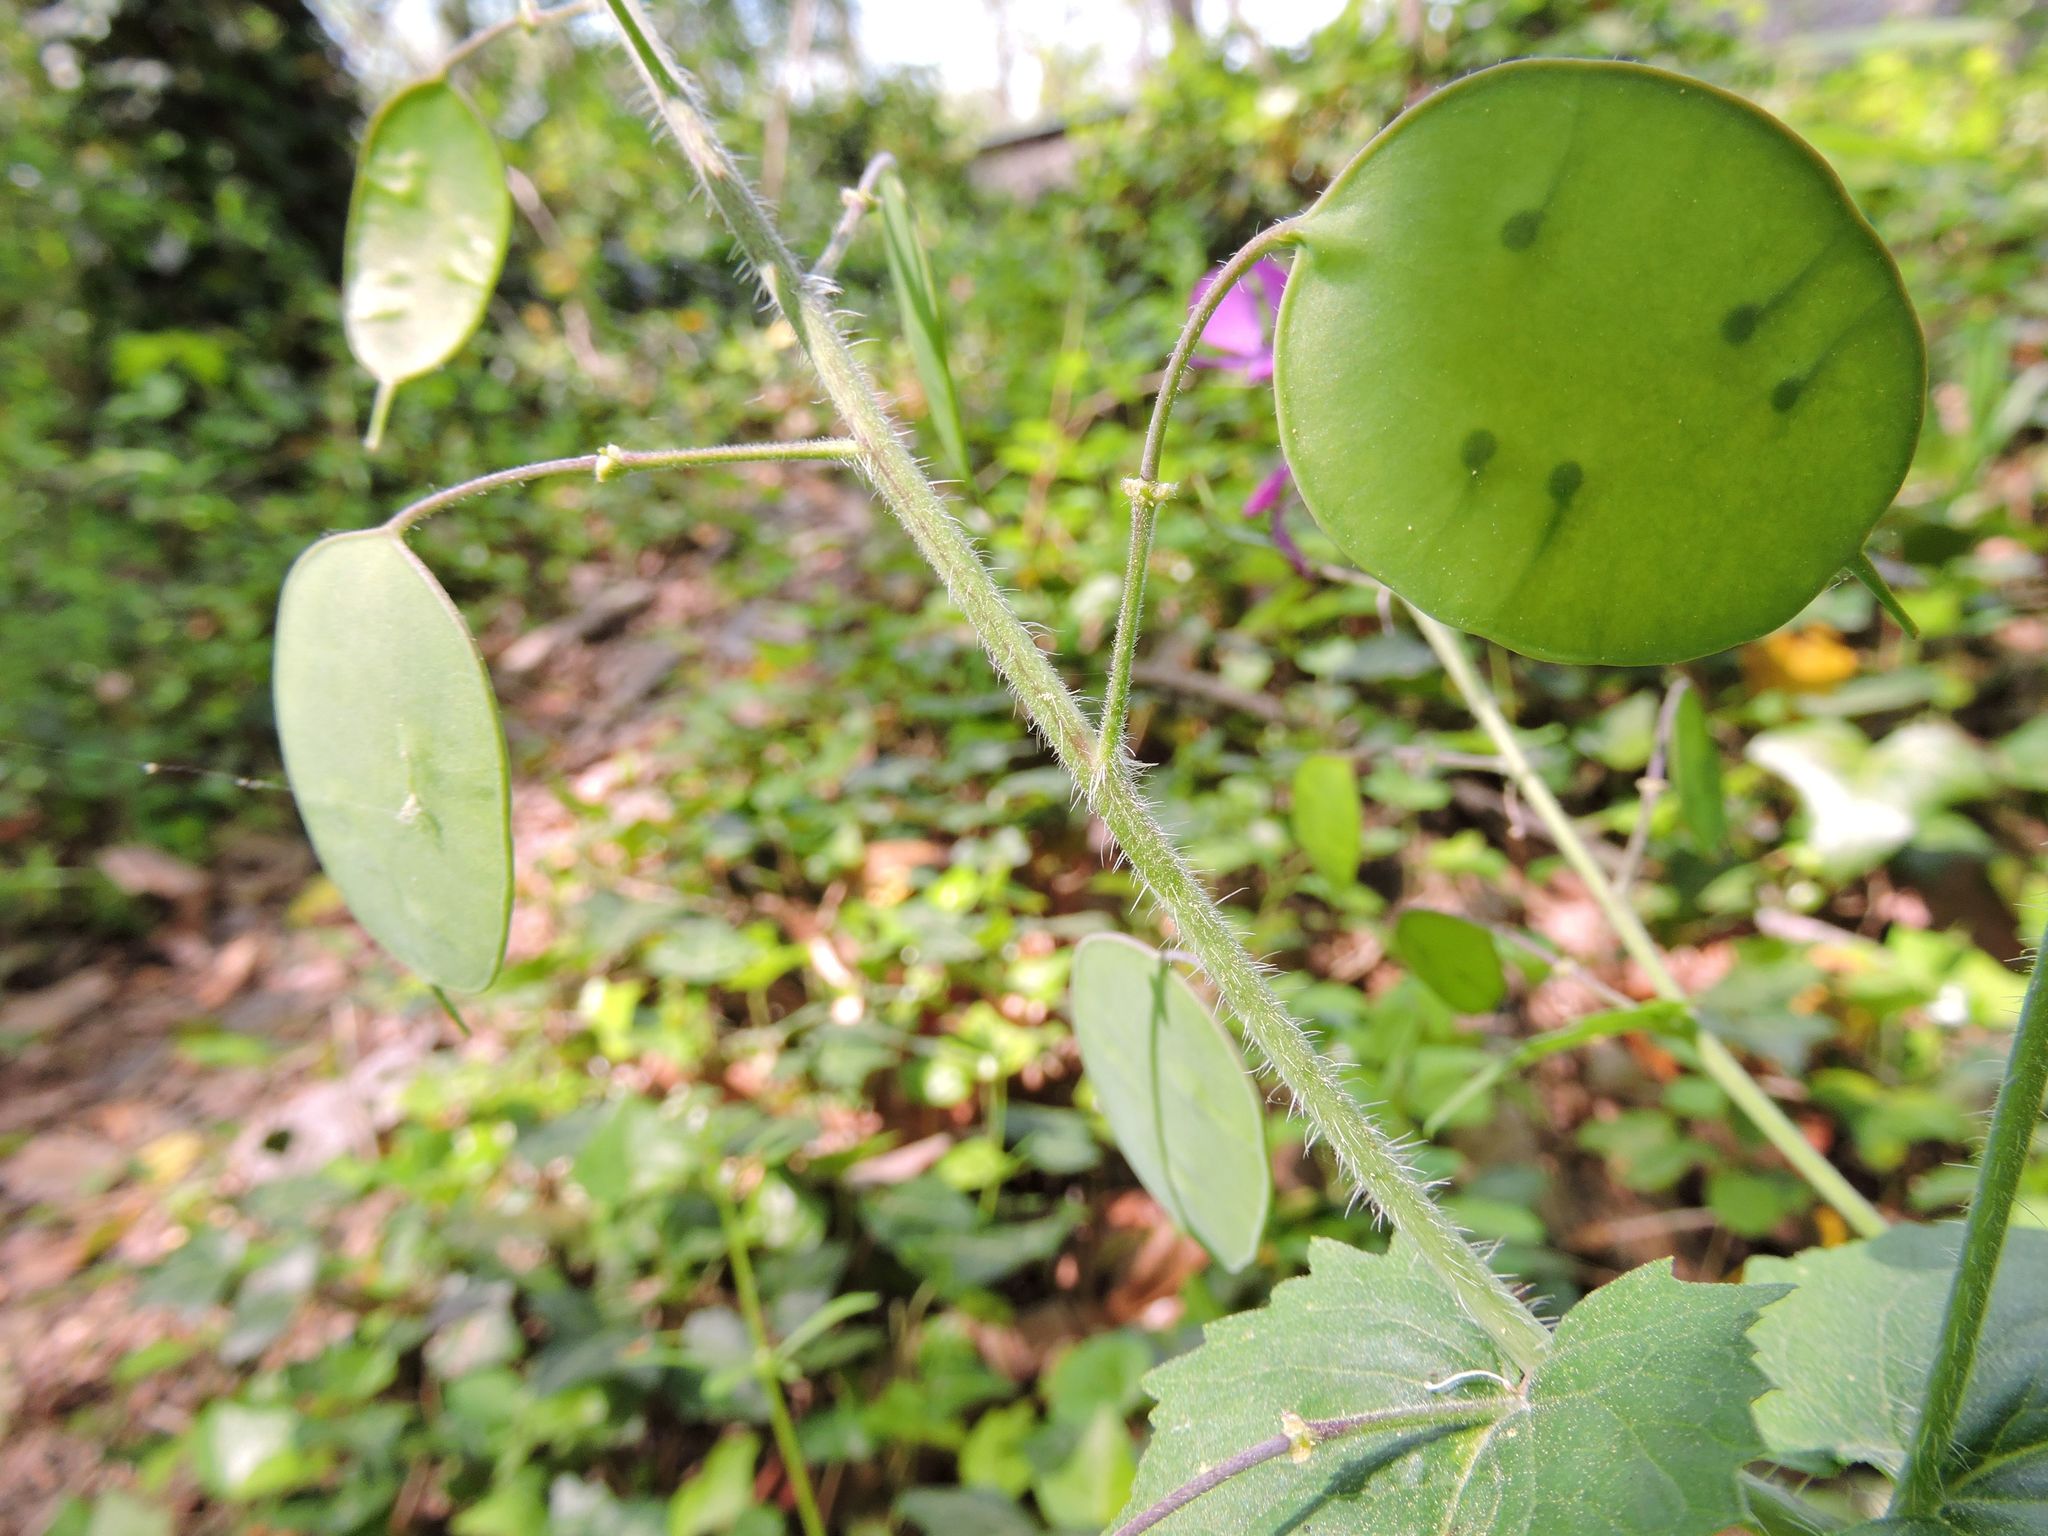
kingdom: Plantae
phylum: Tracheophyta
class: Magnoliopsida
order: Brassicales
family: Brassicaceae
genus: Lunaria
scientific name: Lunaria annua
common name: Honesty
